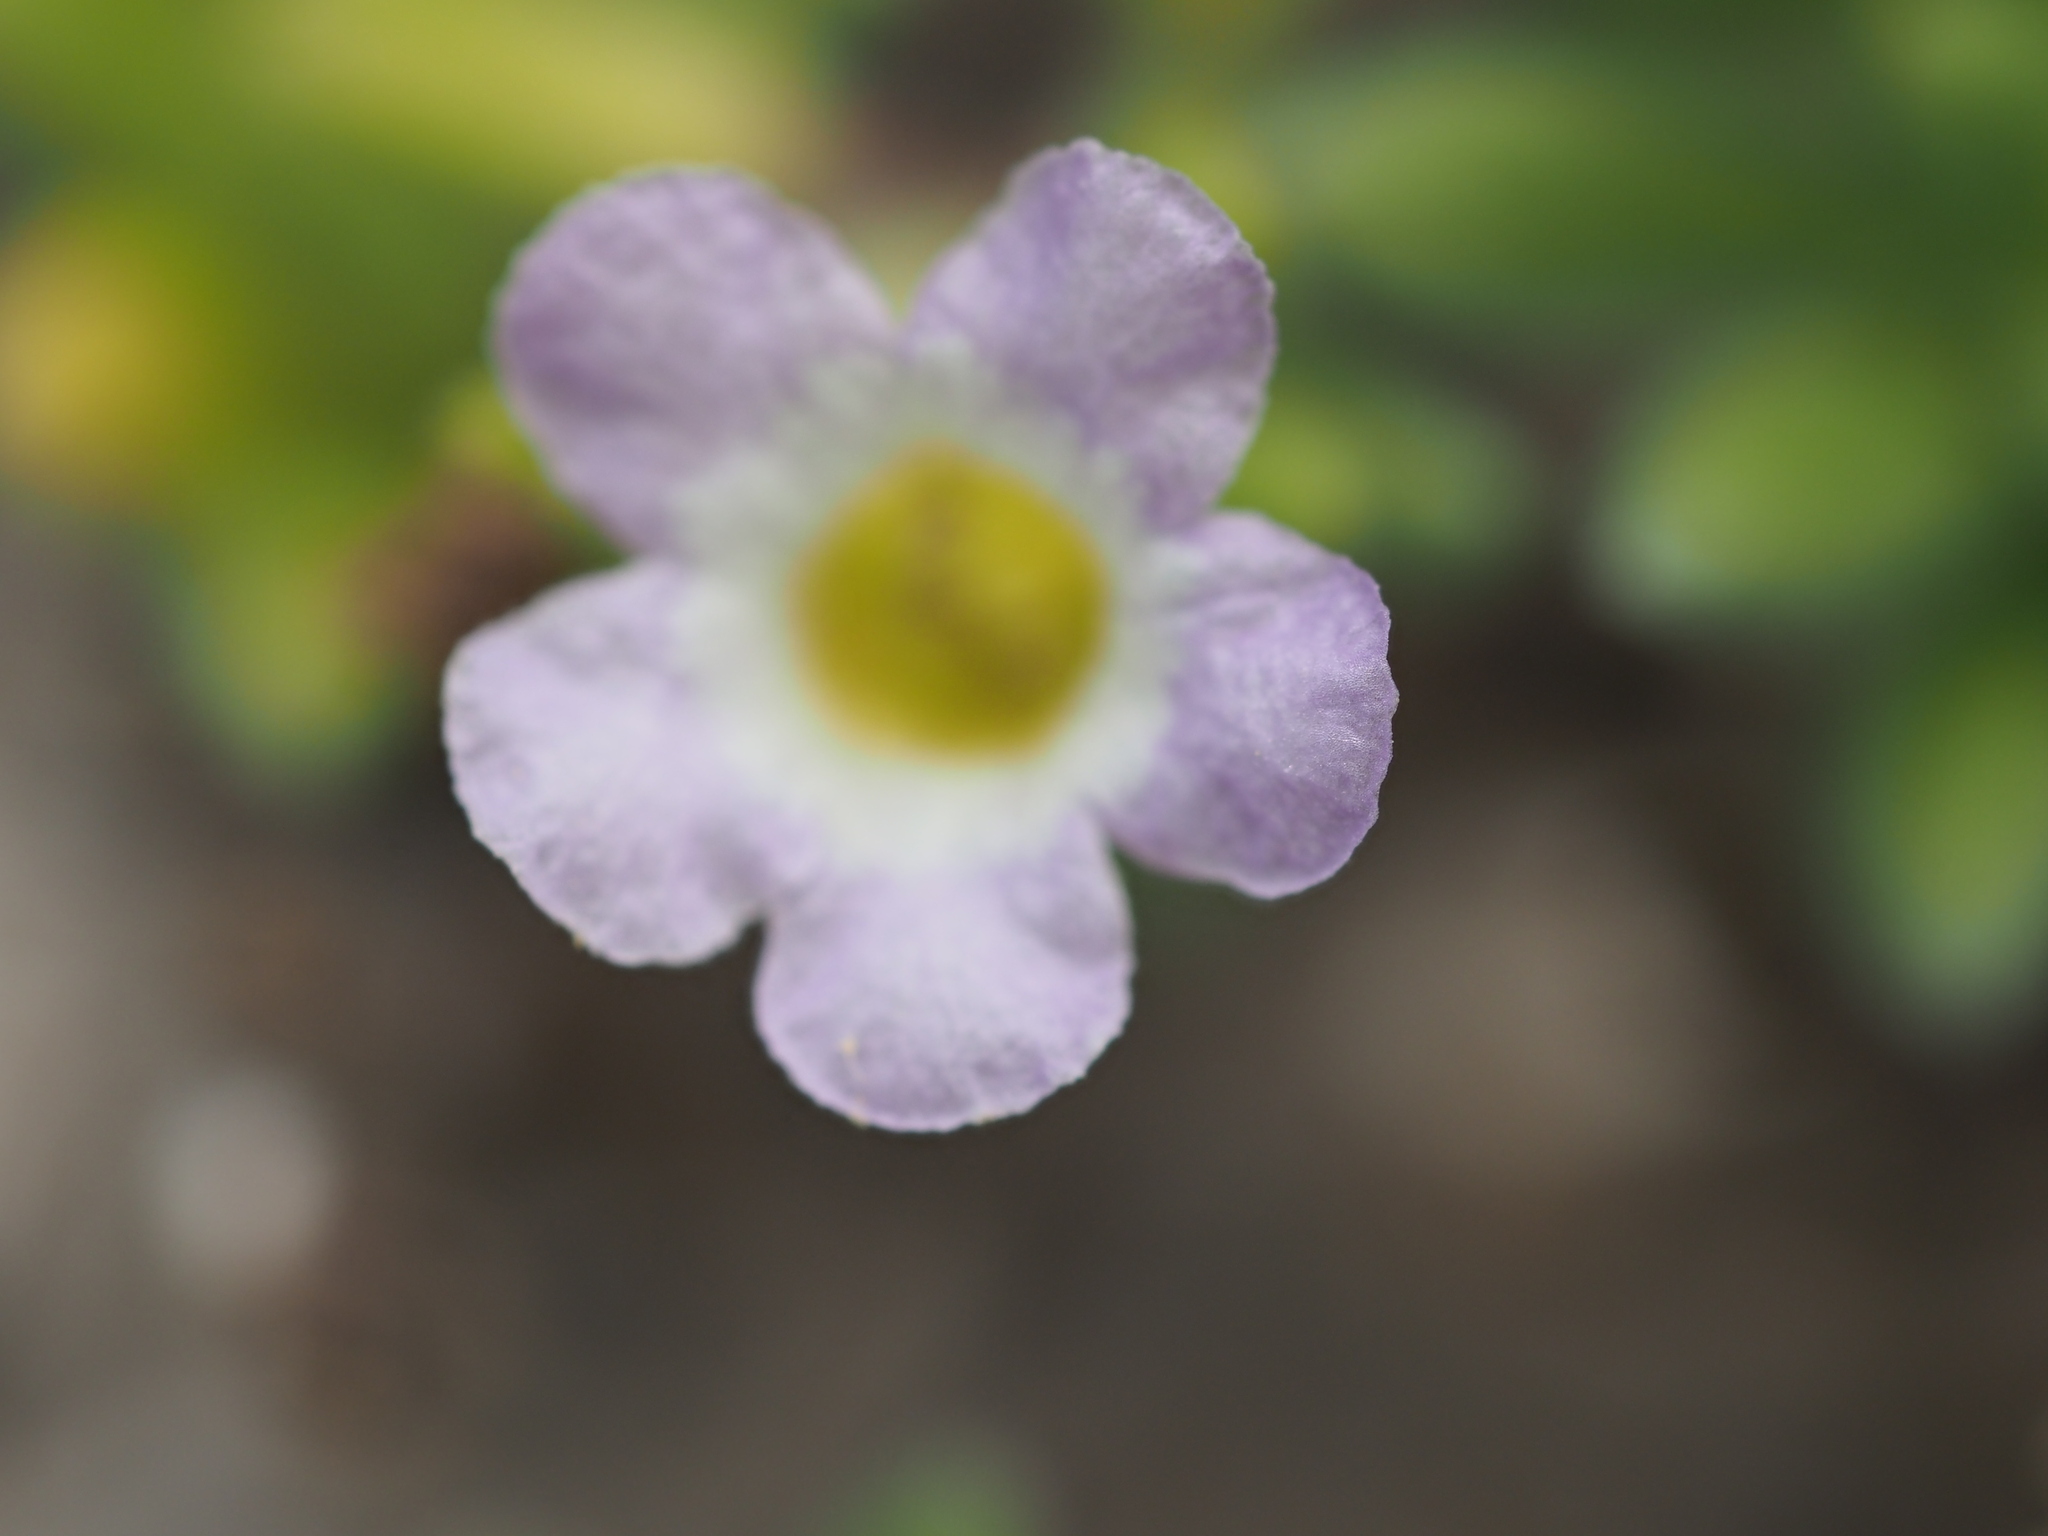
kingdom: Plantae
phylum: Tracheophyta
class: Magnoliopsida
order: Boraginales
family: Namaceae
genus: Nama
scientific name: Nama sandwicense
